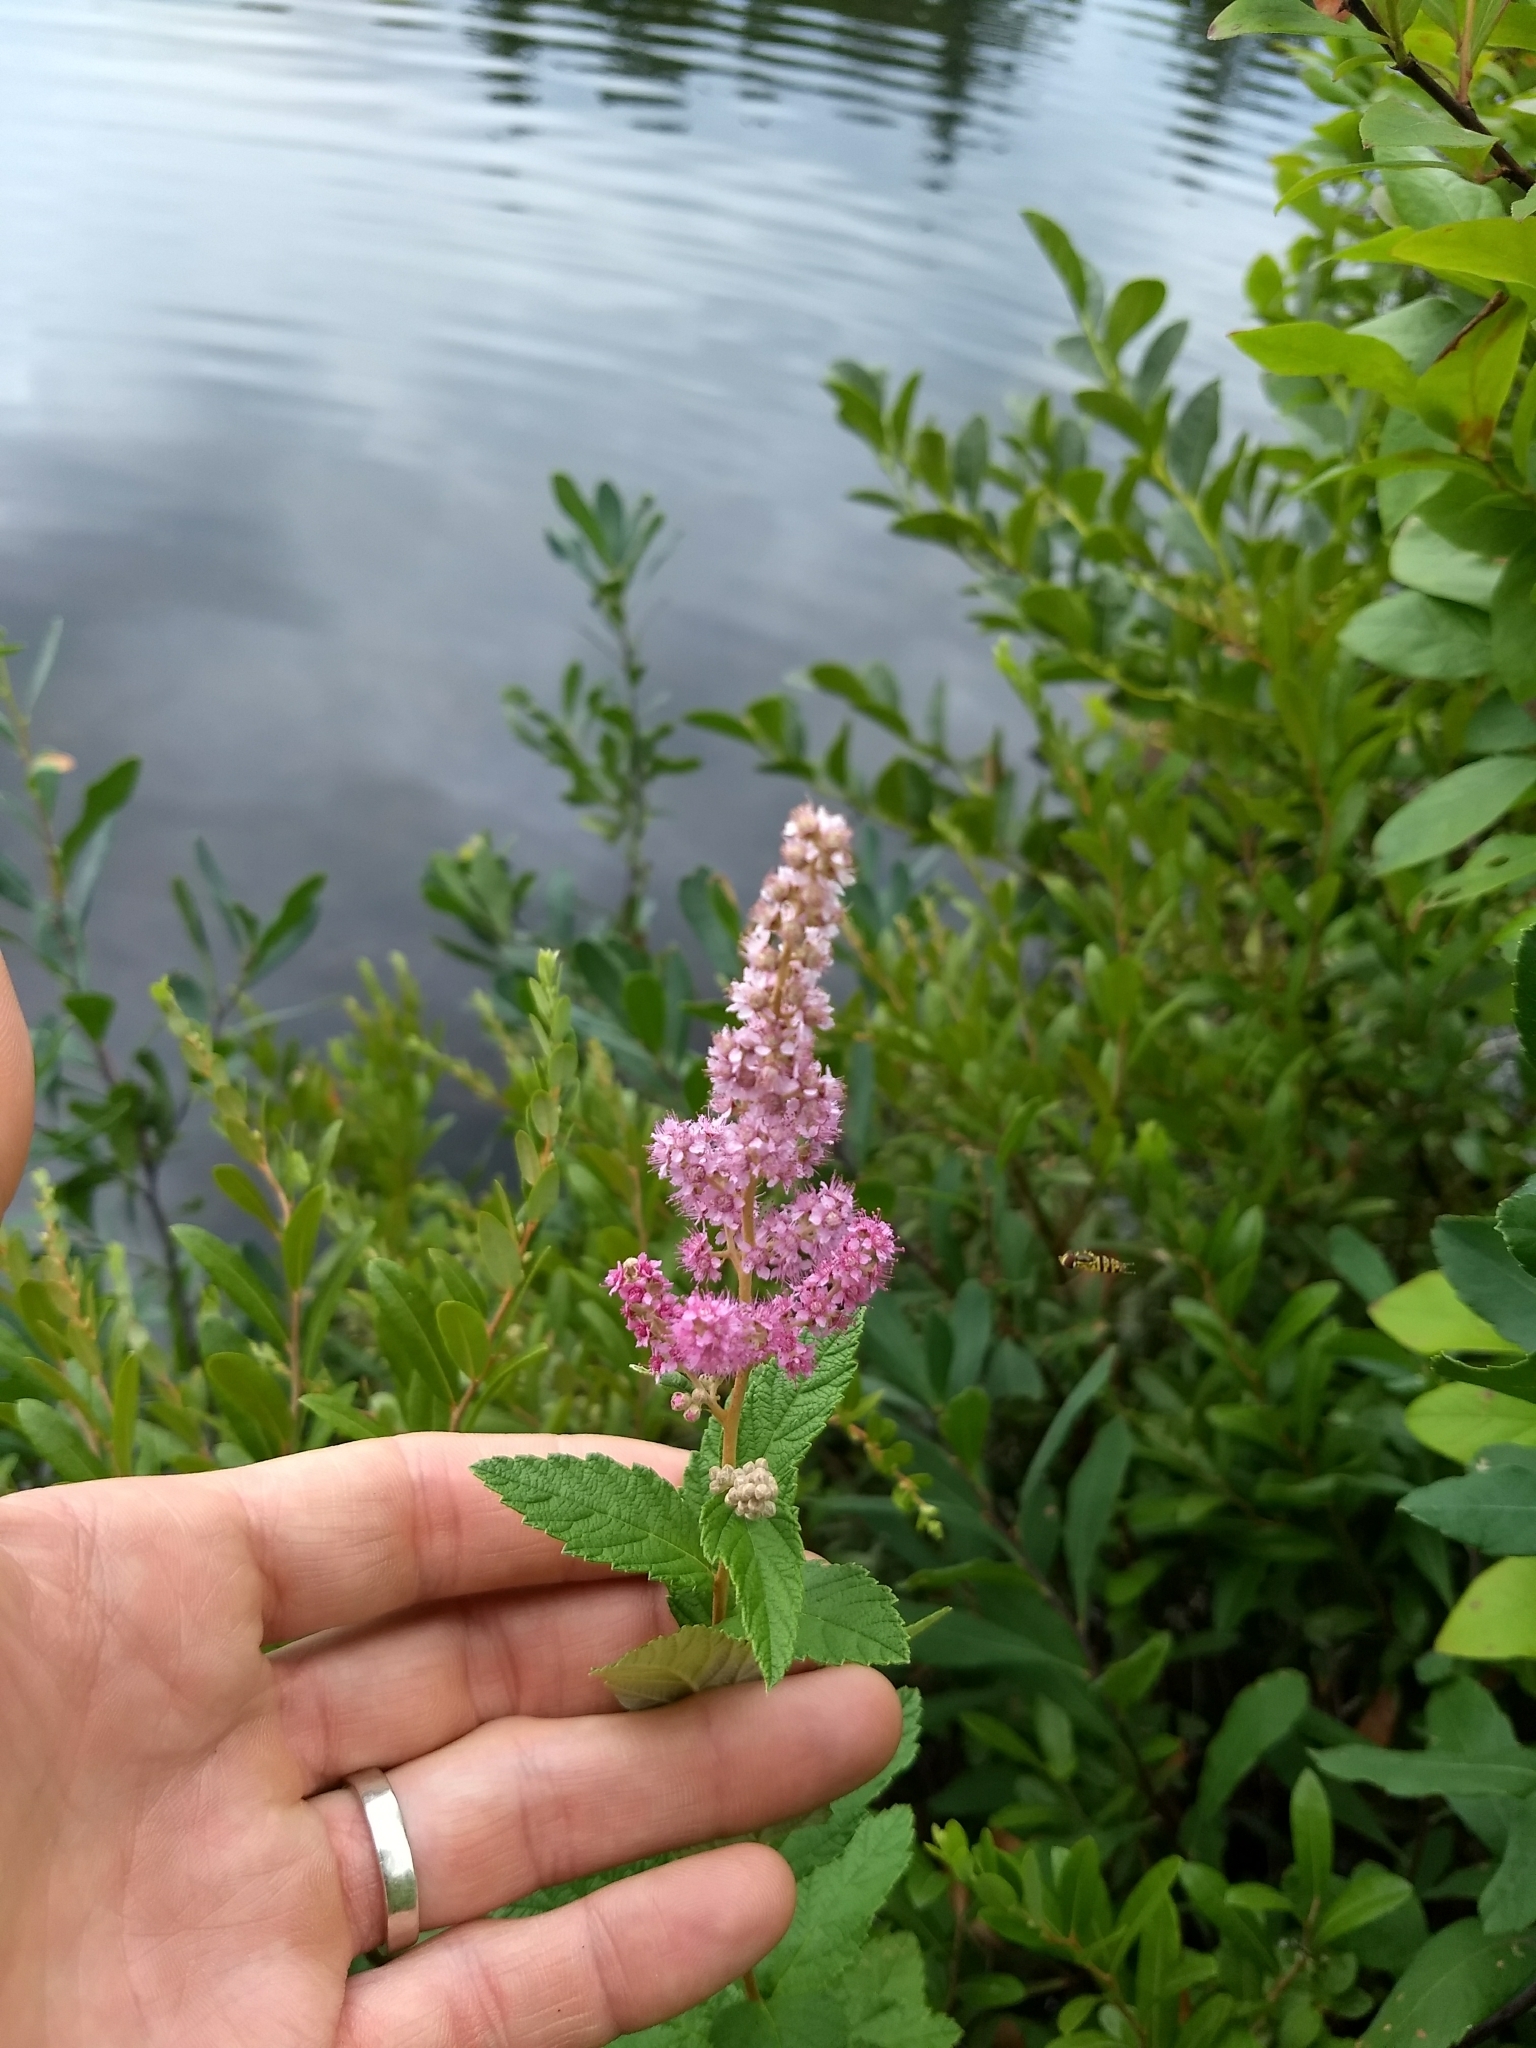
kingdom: Plantae
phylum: Tracheophyta
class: Magnoliopsida
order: Rosales
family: Rosaceae
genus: Spiraea
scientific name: Spiraea tomentosa
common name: Hardhack
